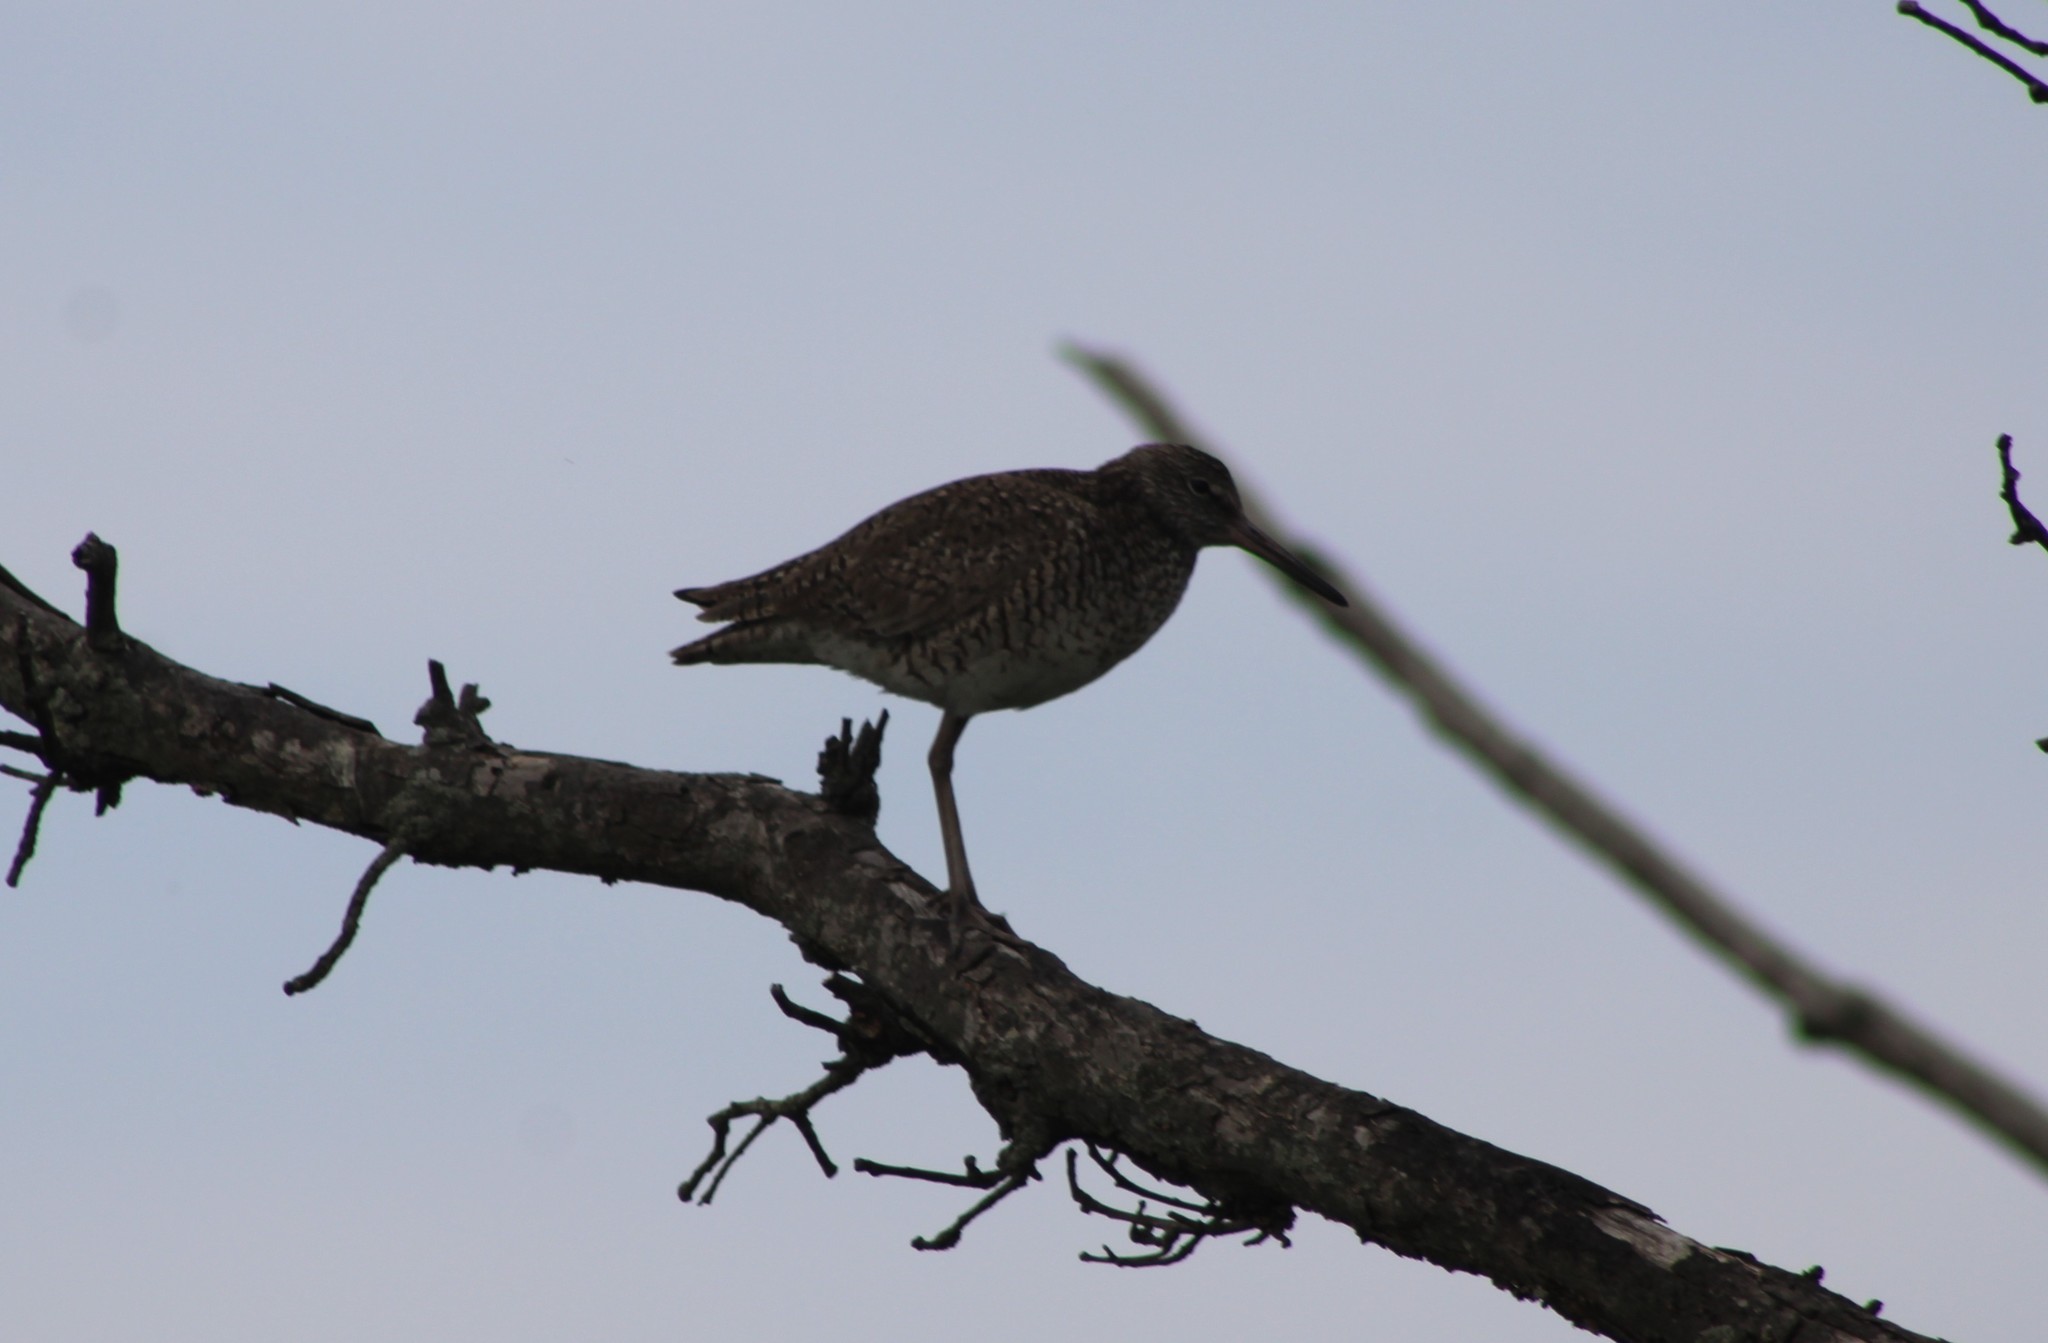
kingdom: Animalia
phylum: Chordata
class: Aves
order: Charadriiformes
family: Scolopacidae
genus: Tringa
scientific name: Tringa semipalmata
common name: Willet
